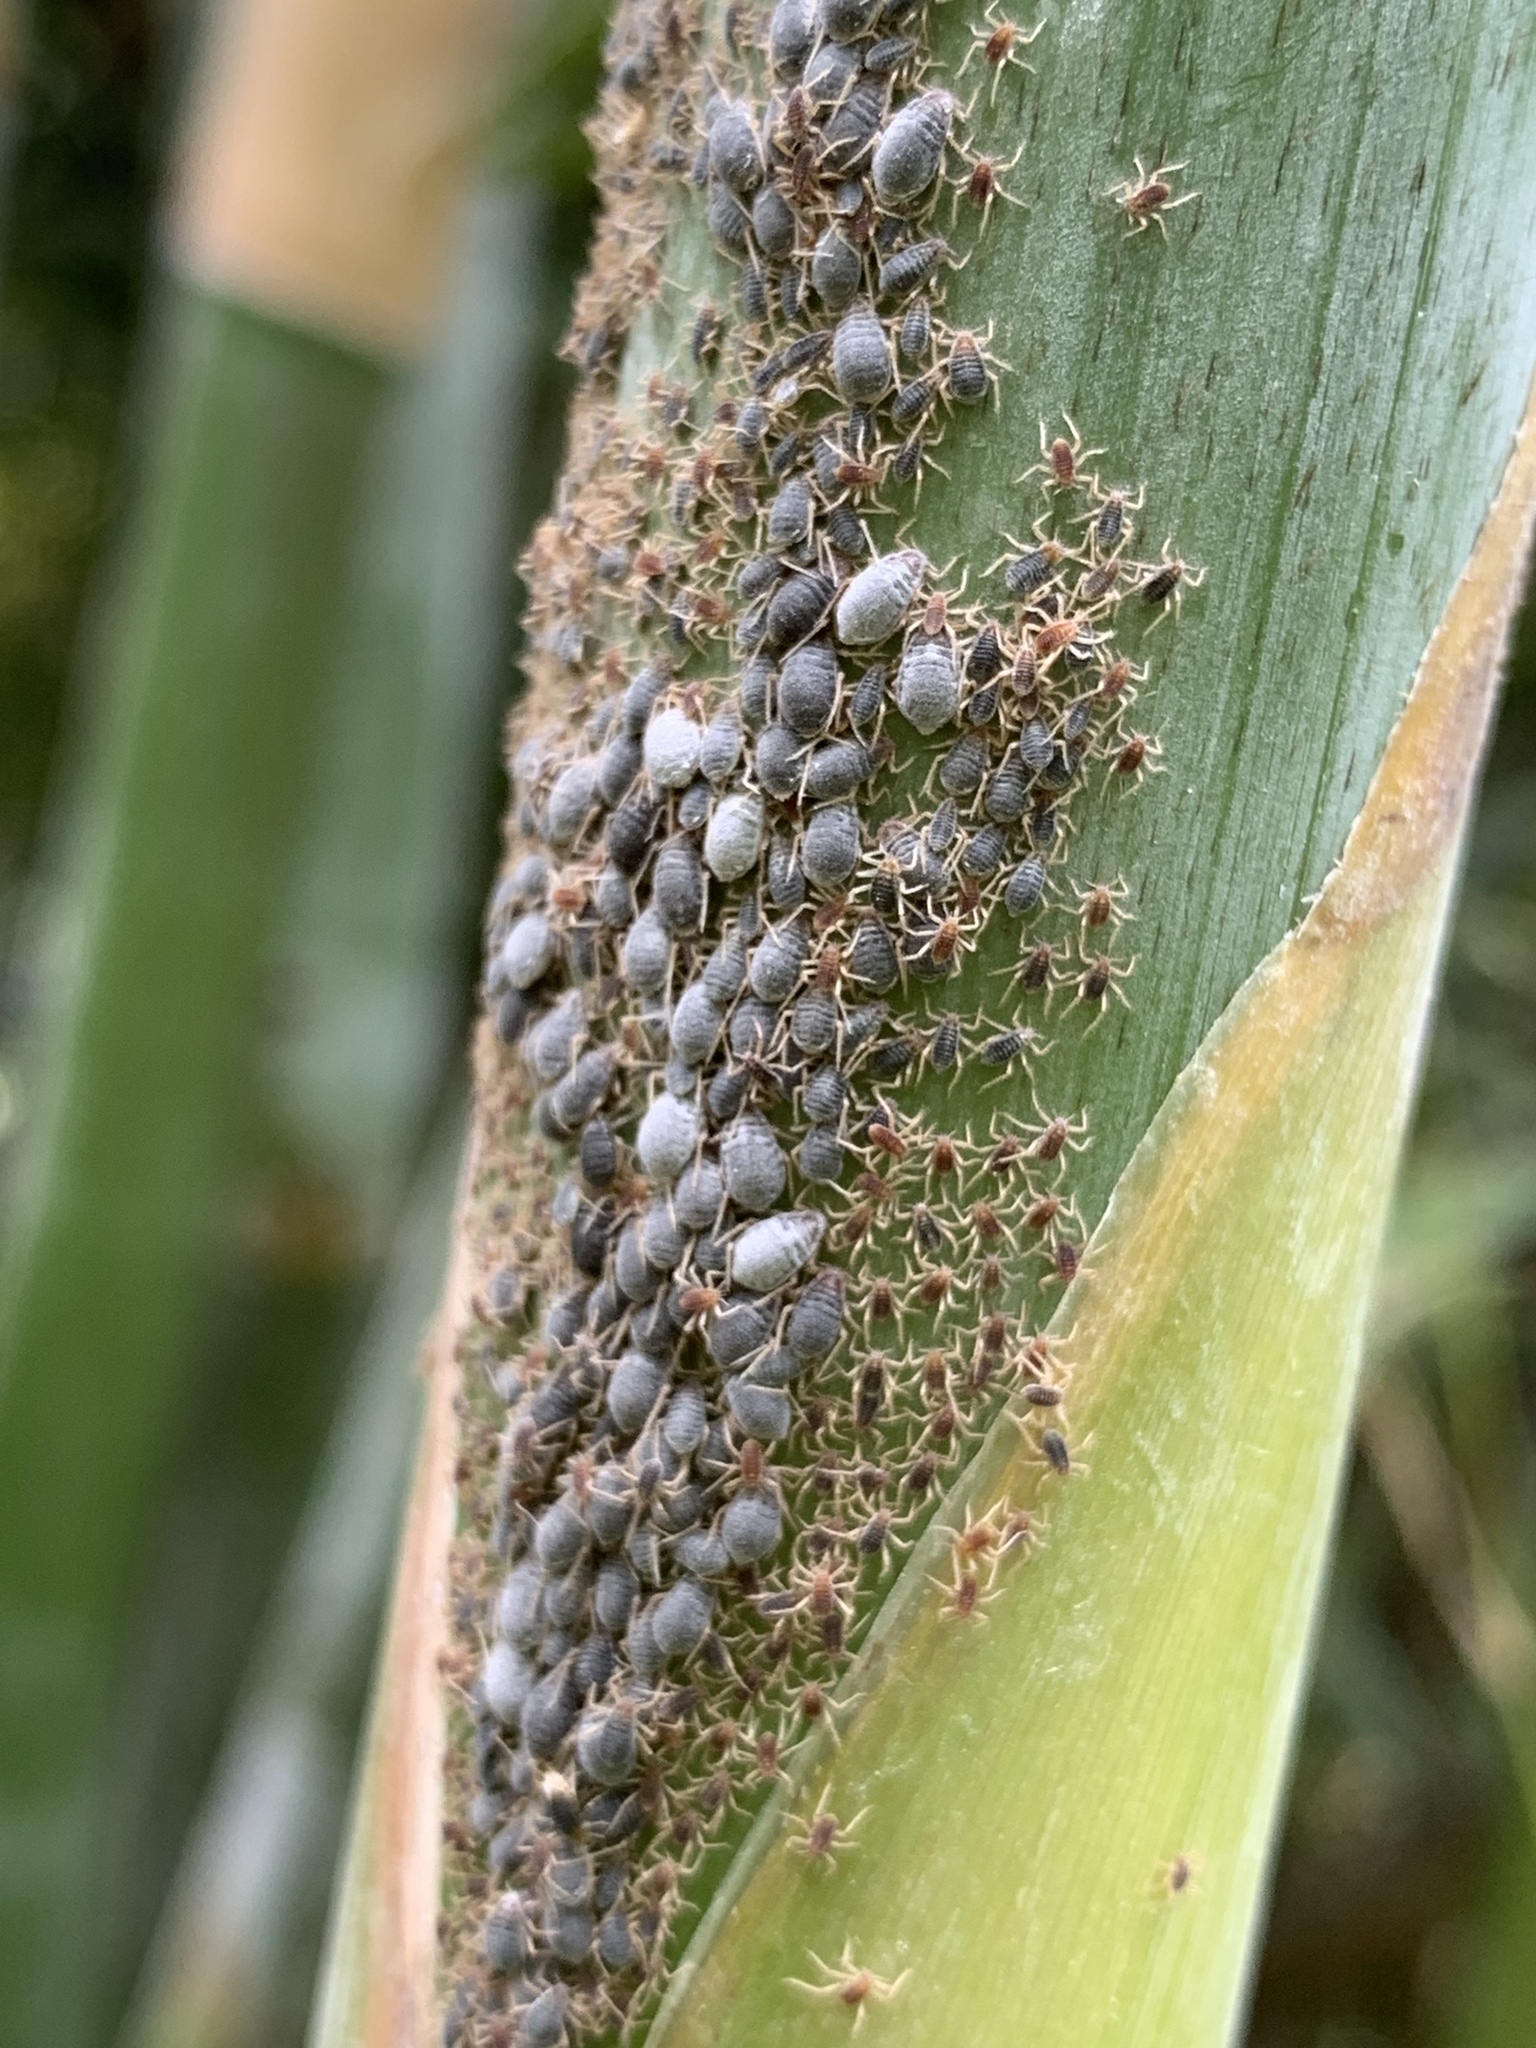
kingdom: Animalia
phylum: Arthropoda
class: Insecta
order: Hemiptera
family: Aphididae
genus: Pseudoregma
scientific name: Pseudoregma bambucicola
